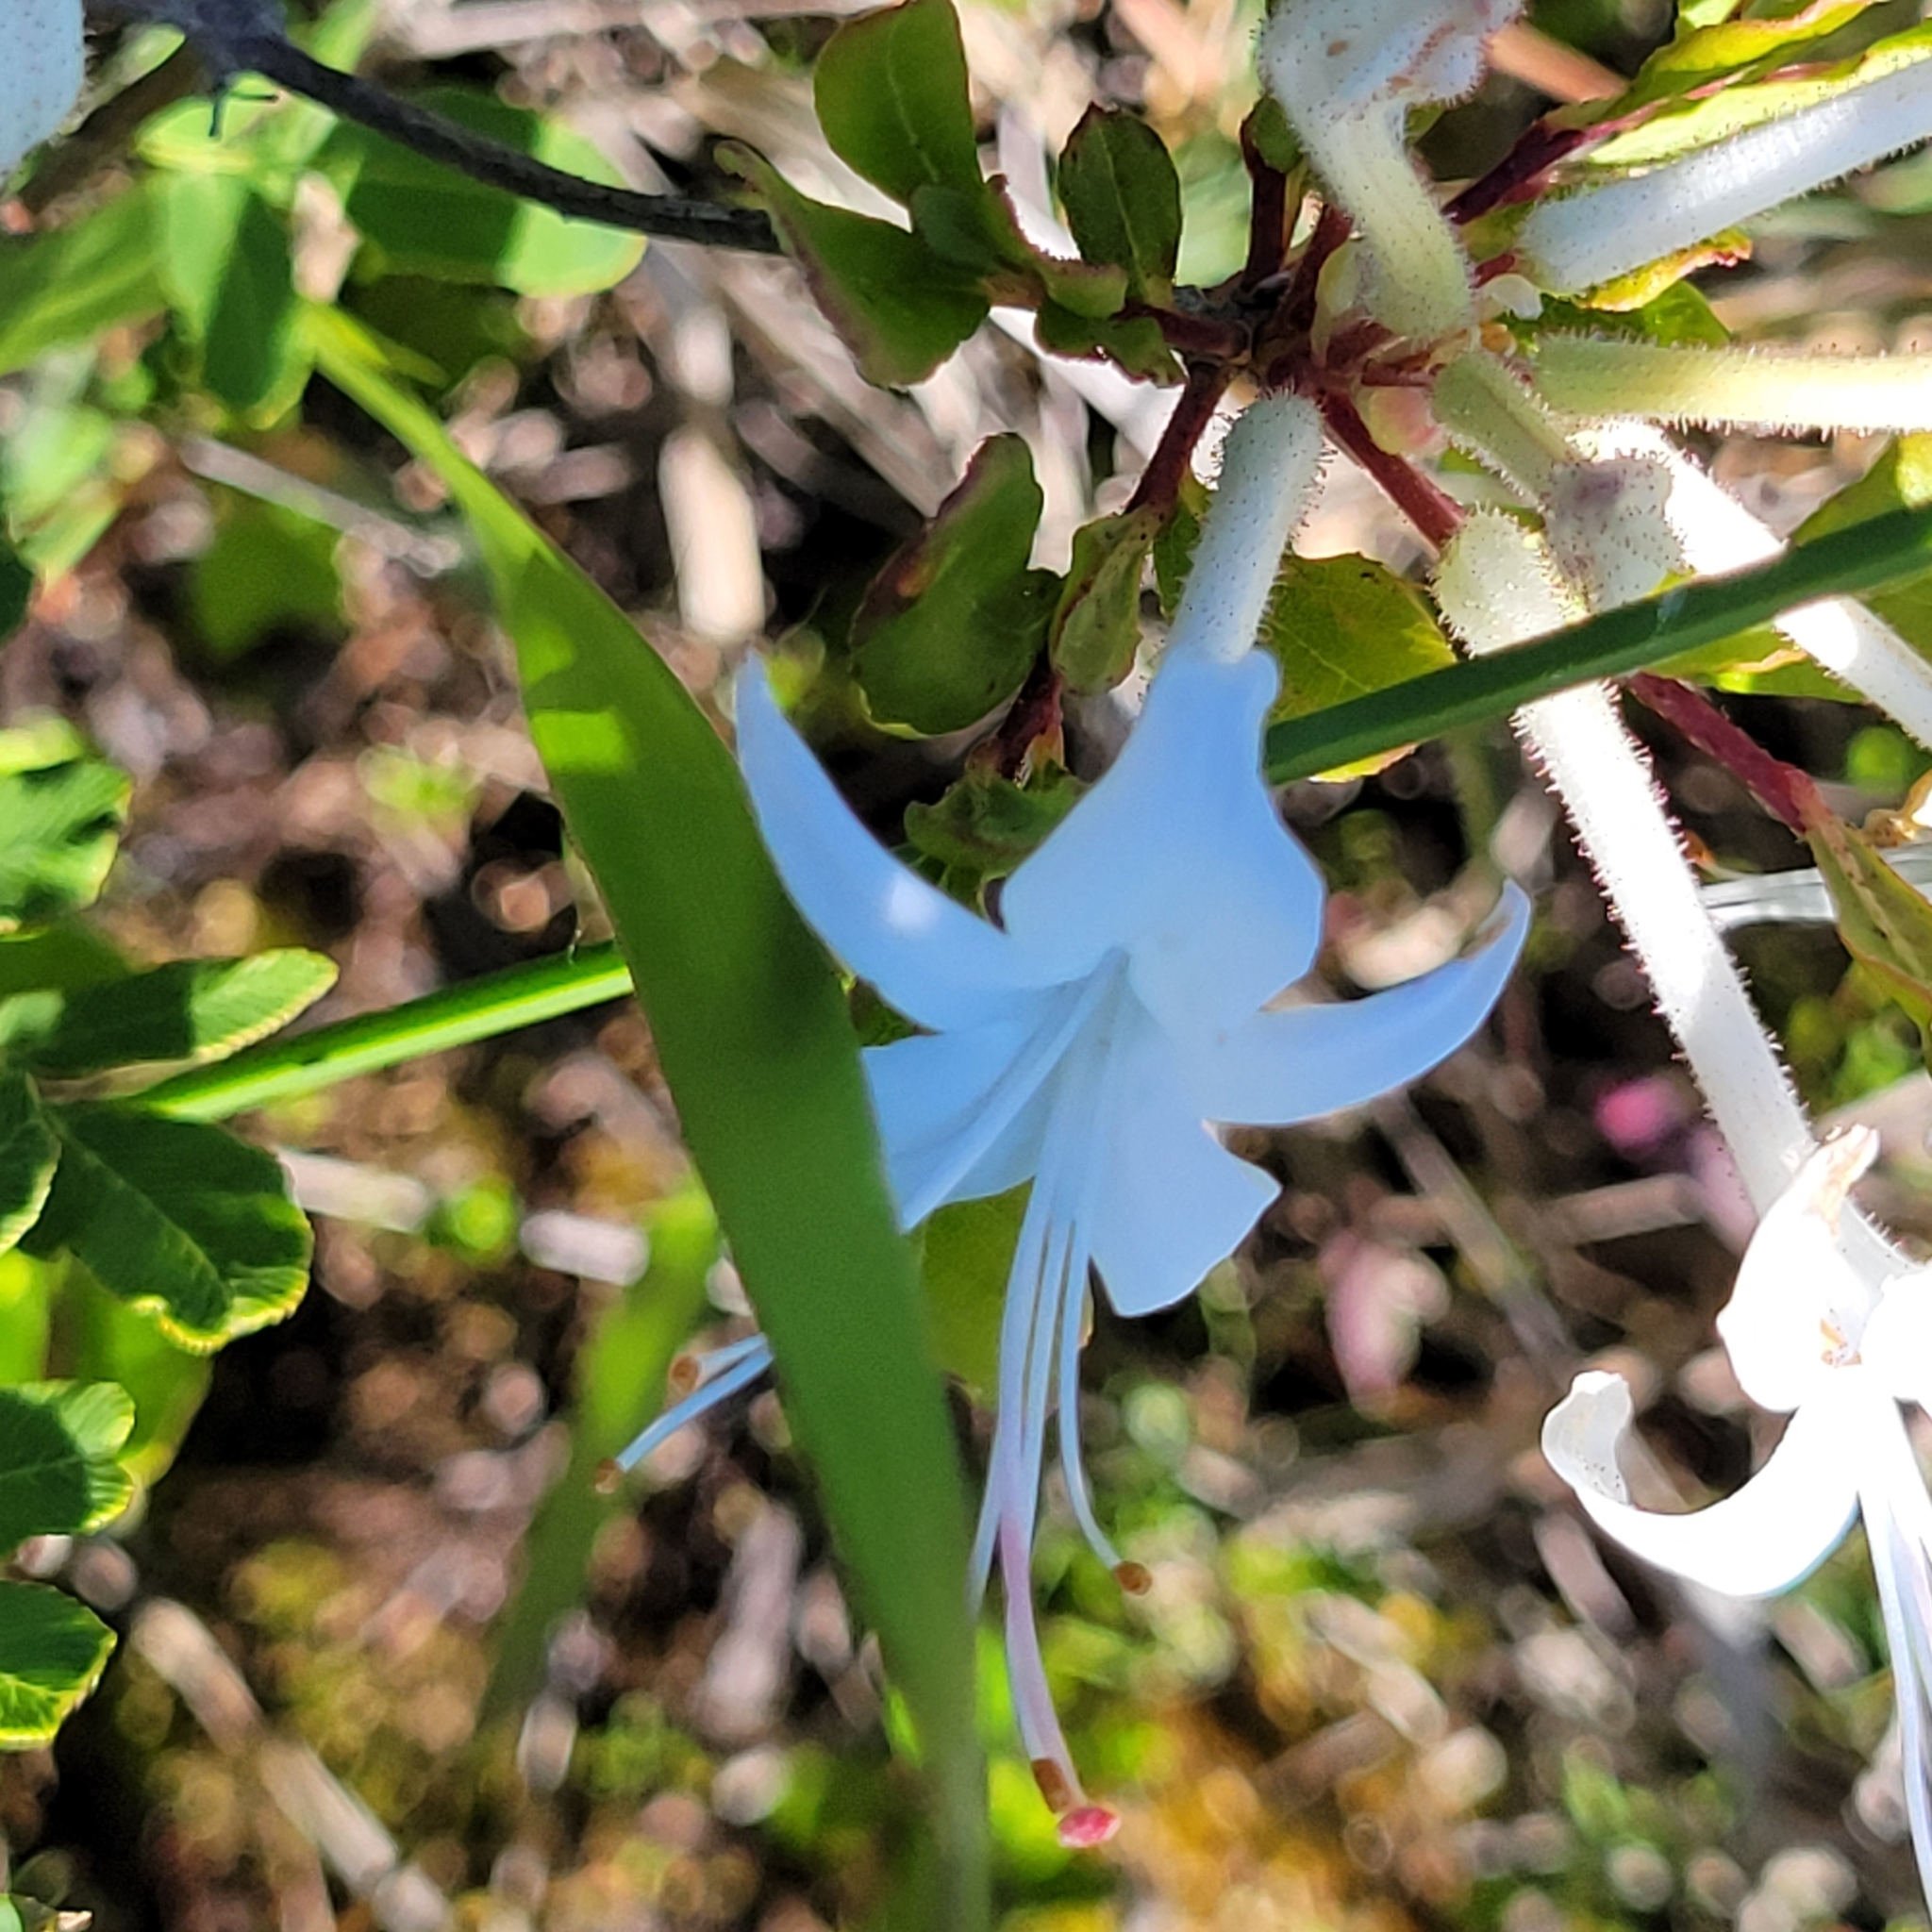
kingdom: Plantae
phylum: Tracheophyta
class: Magnoliopsida
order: Ericales
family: Ericaceae
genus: Rhododendron
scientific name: Rhododendron viscosum
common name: Clammy azalea
